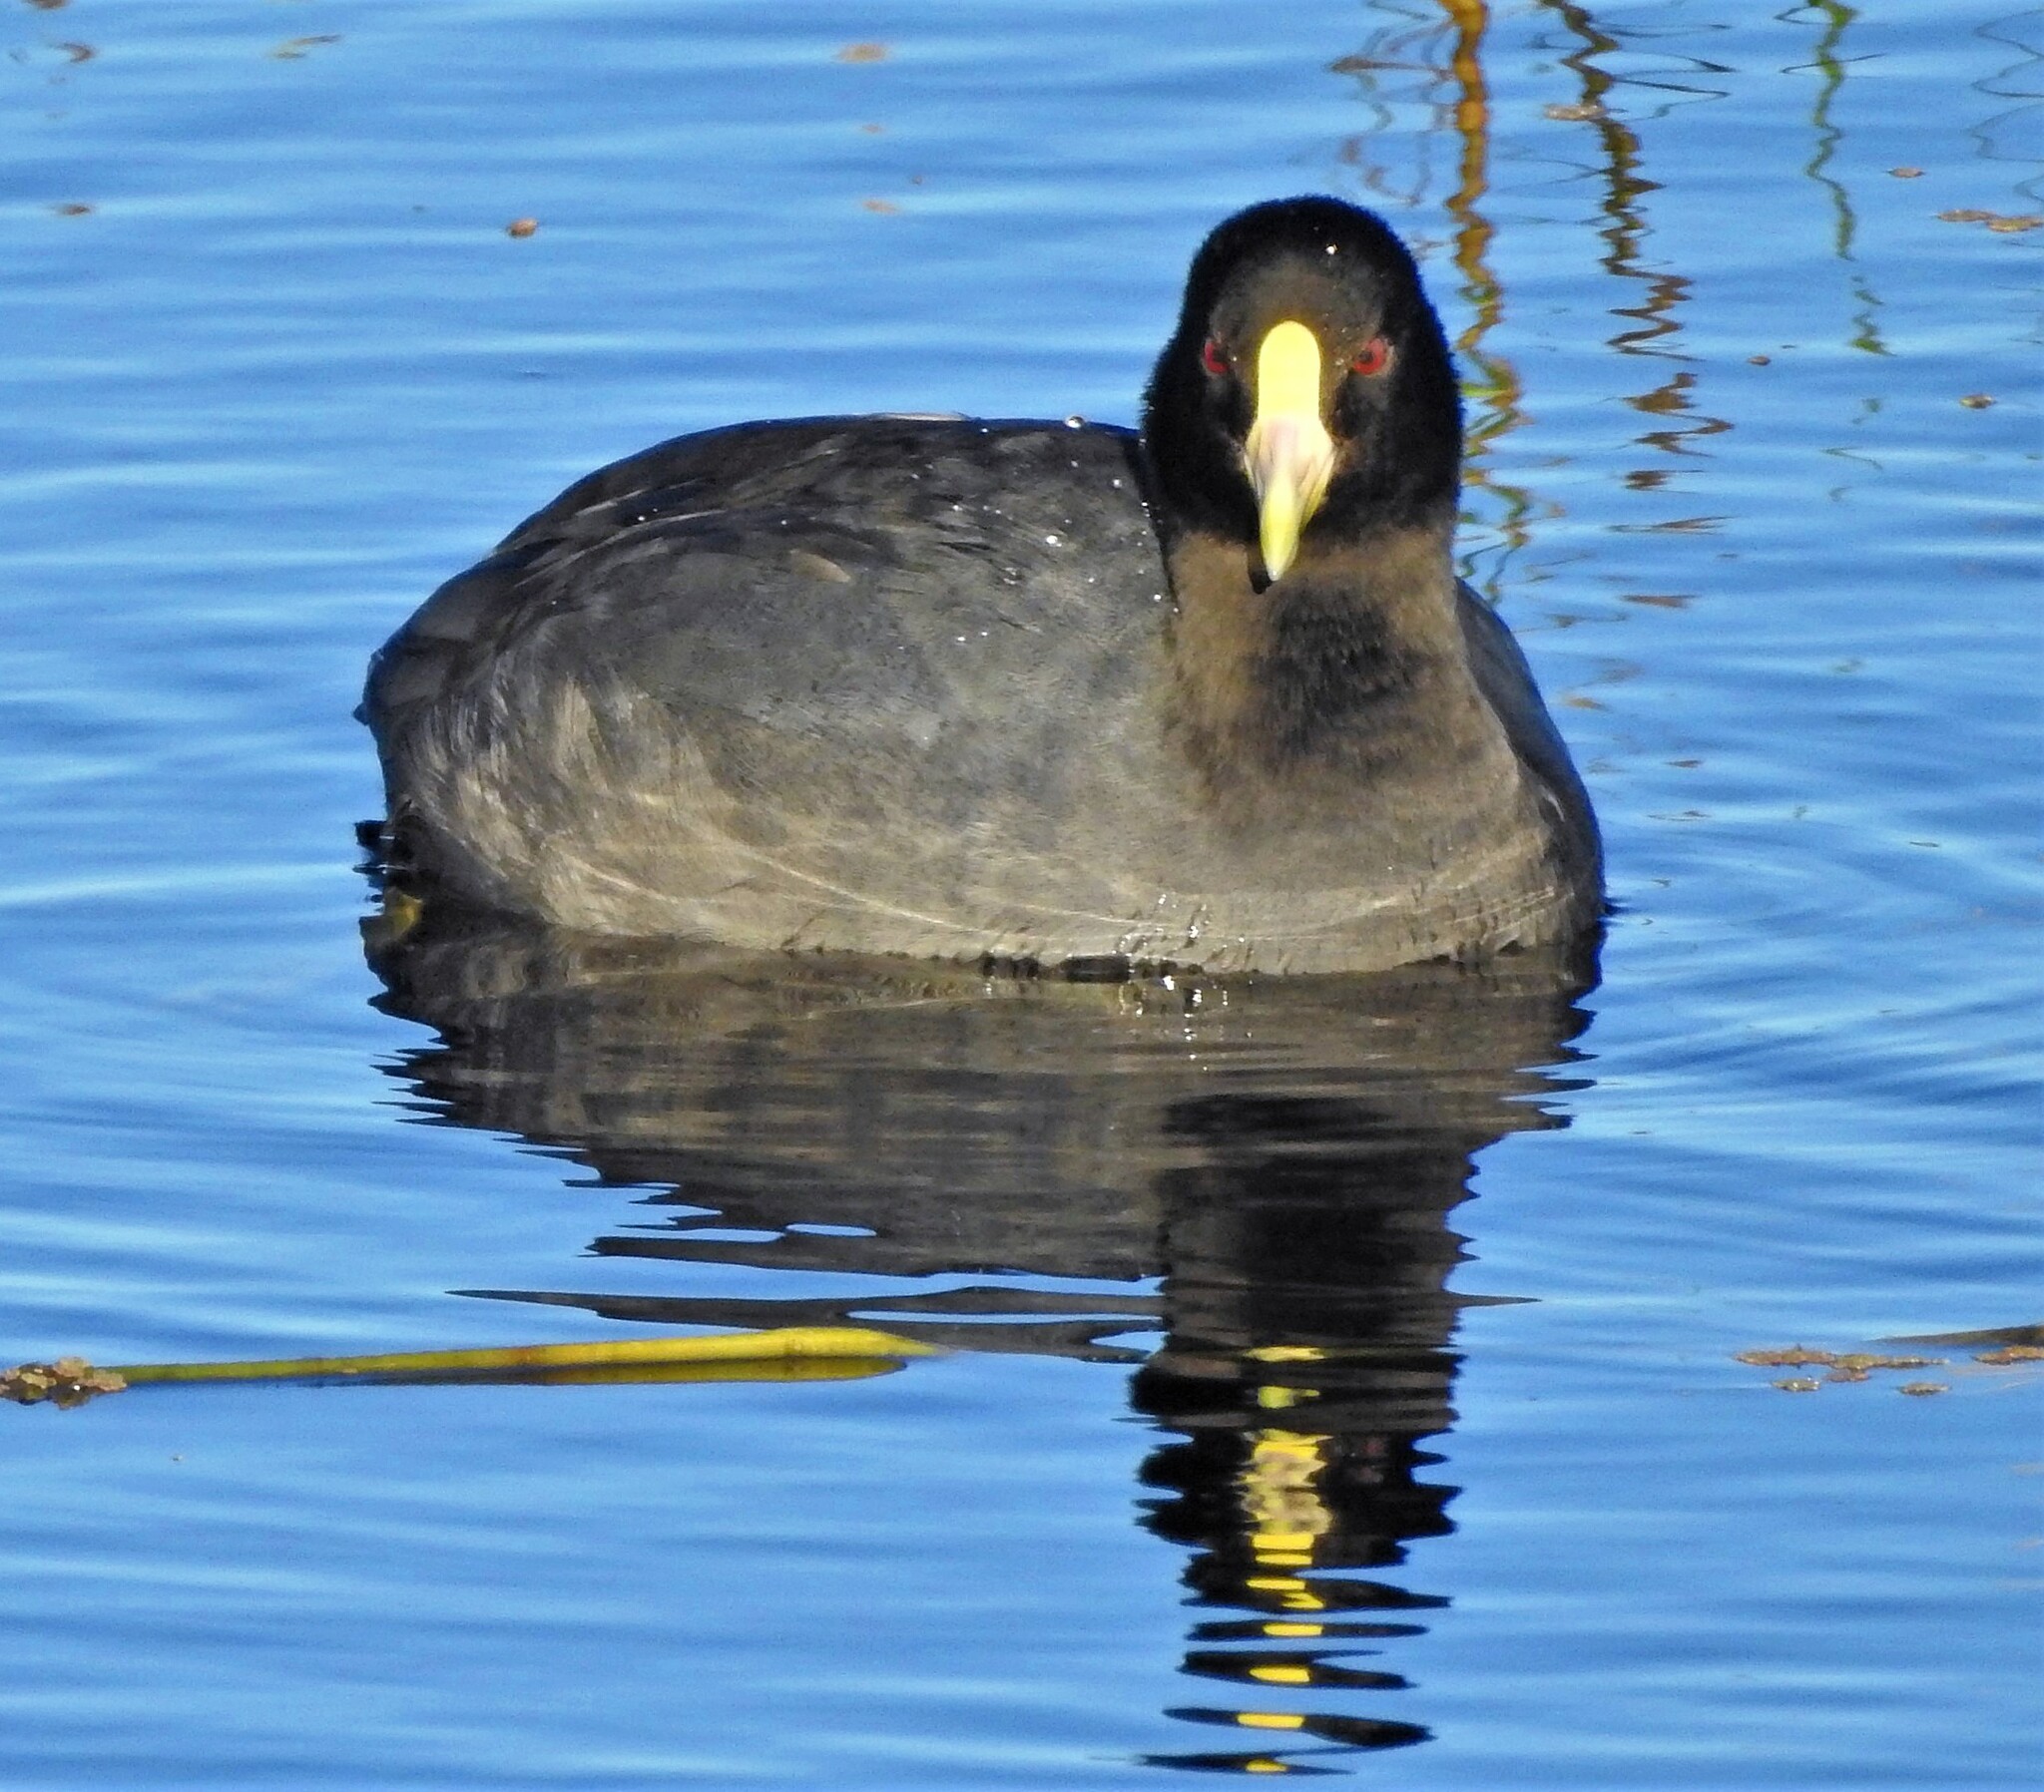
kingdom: Animalia
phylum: Chordata
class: Aves
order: Gruiformes
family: Rallidae
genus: Fulica
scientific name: Fulica leucoptera
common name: White-winged coot
